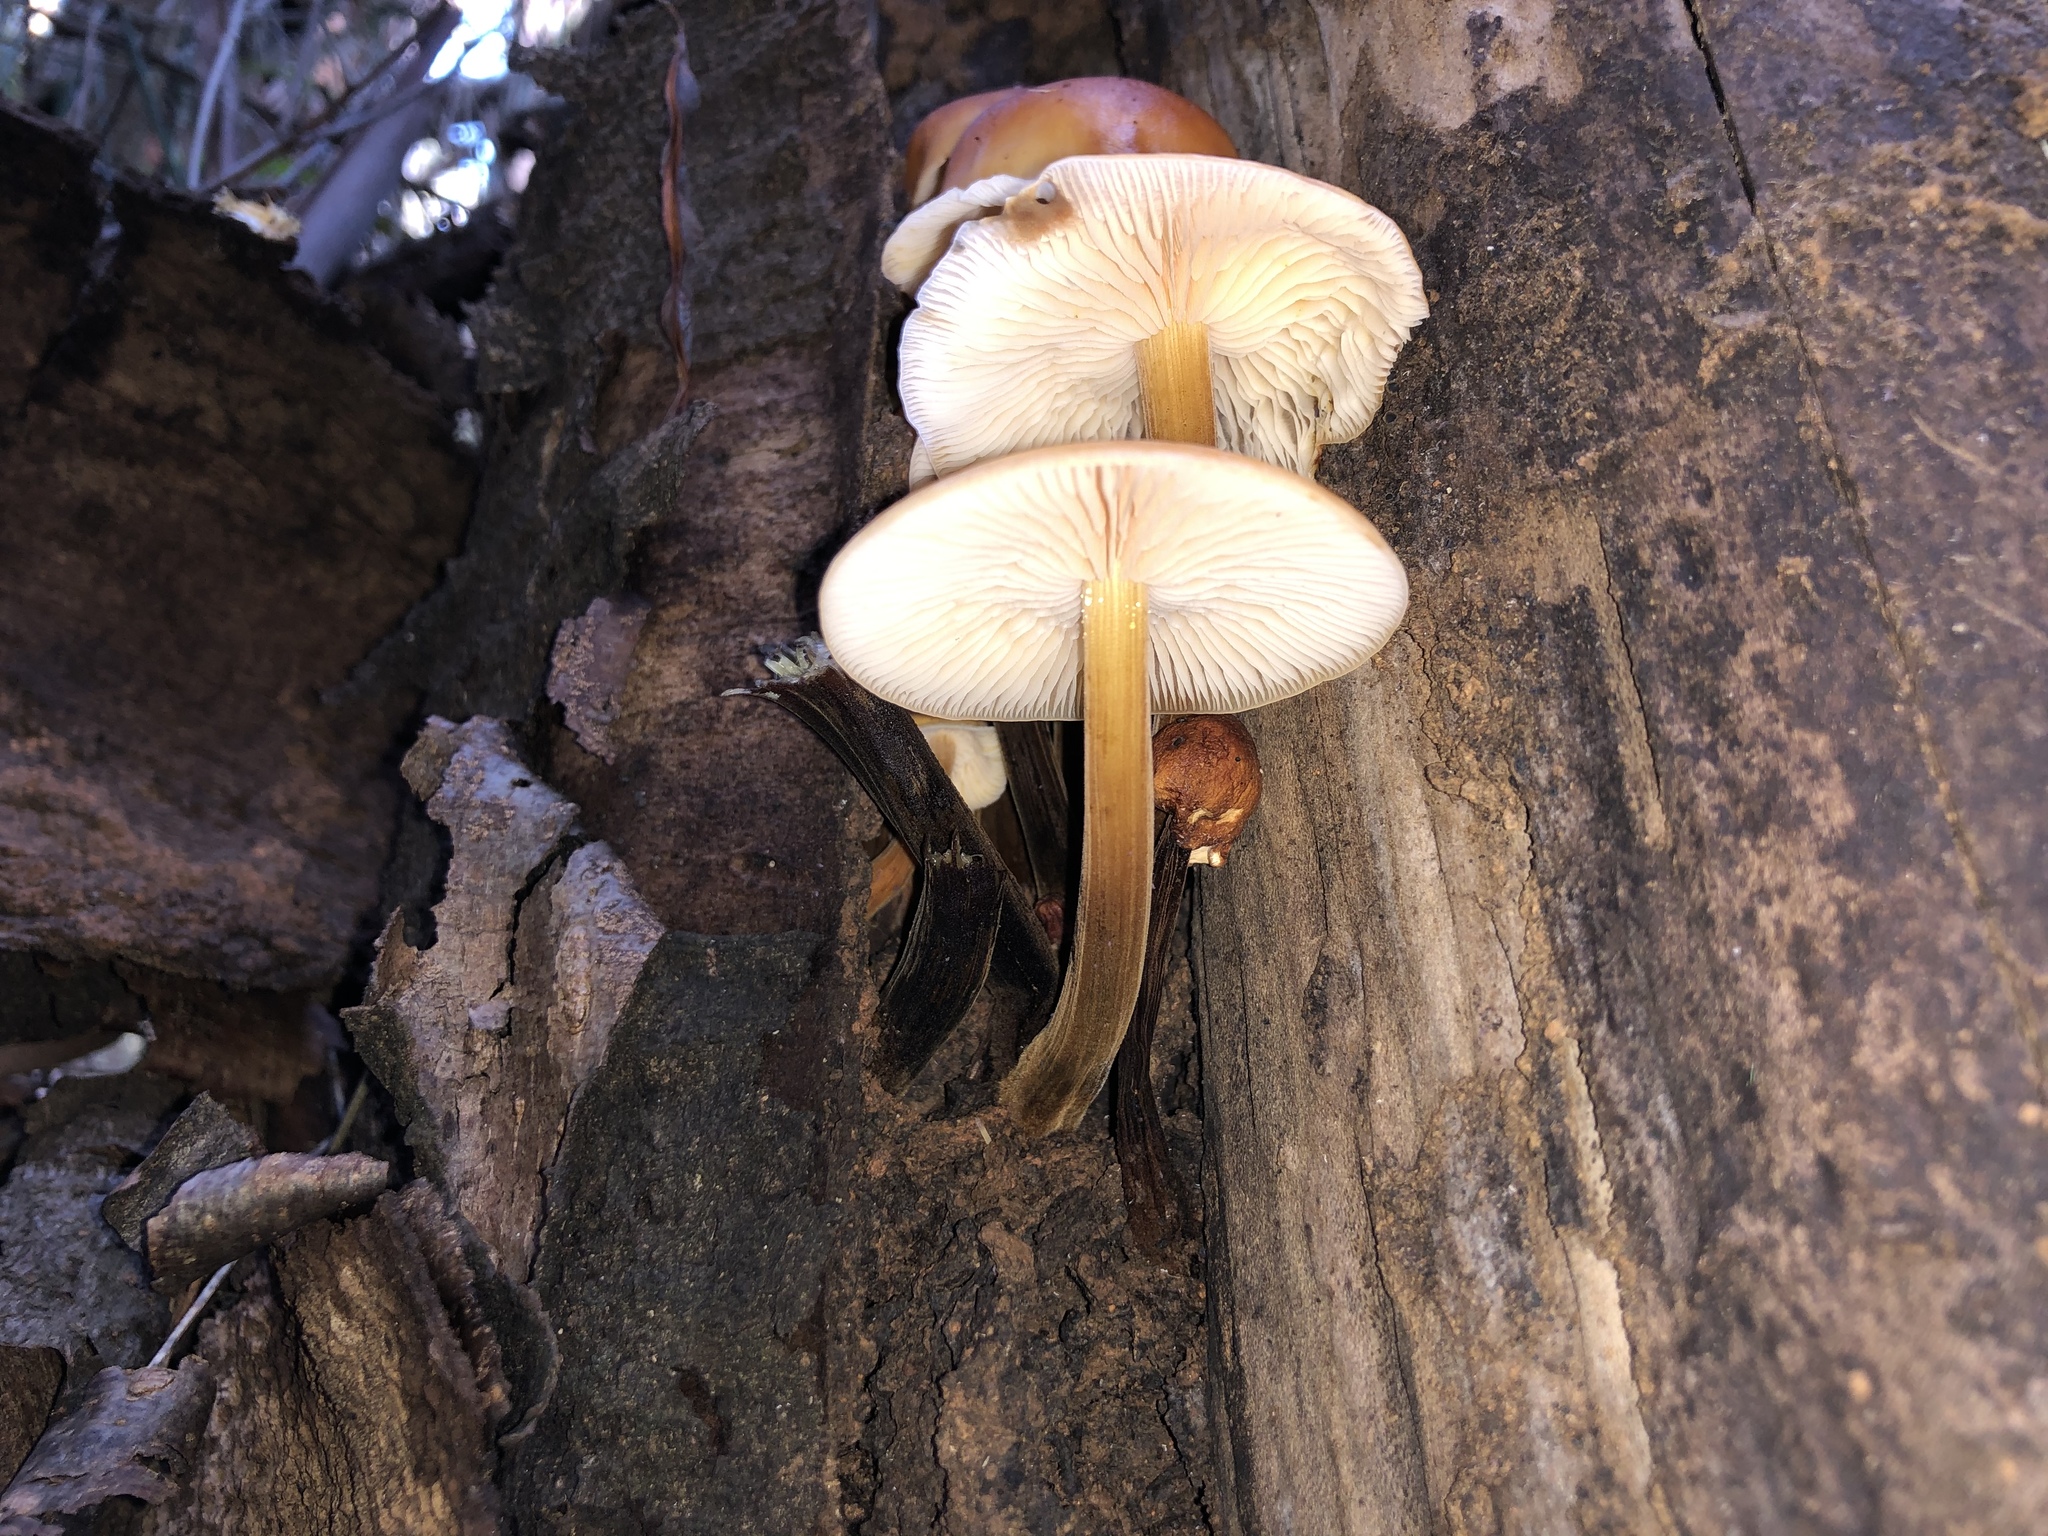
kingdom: Fungi
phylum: Basidiomycota
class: Agaricomycetes
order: Agaricales
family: Physalacriaceae
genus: Flammulina
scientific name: Flammulina velutipes
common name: Velvet shank
